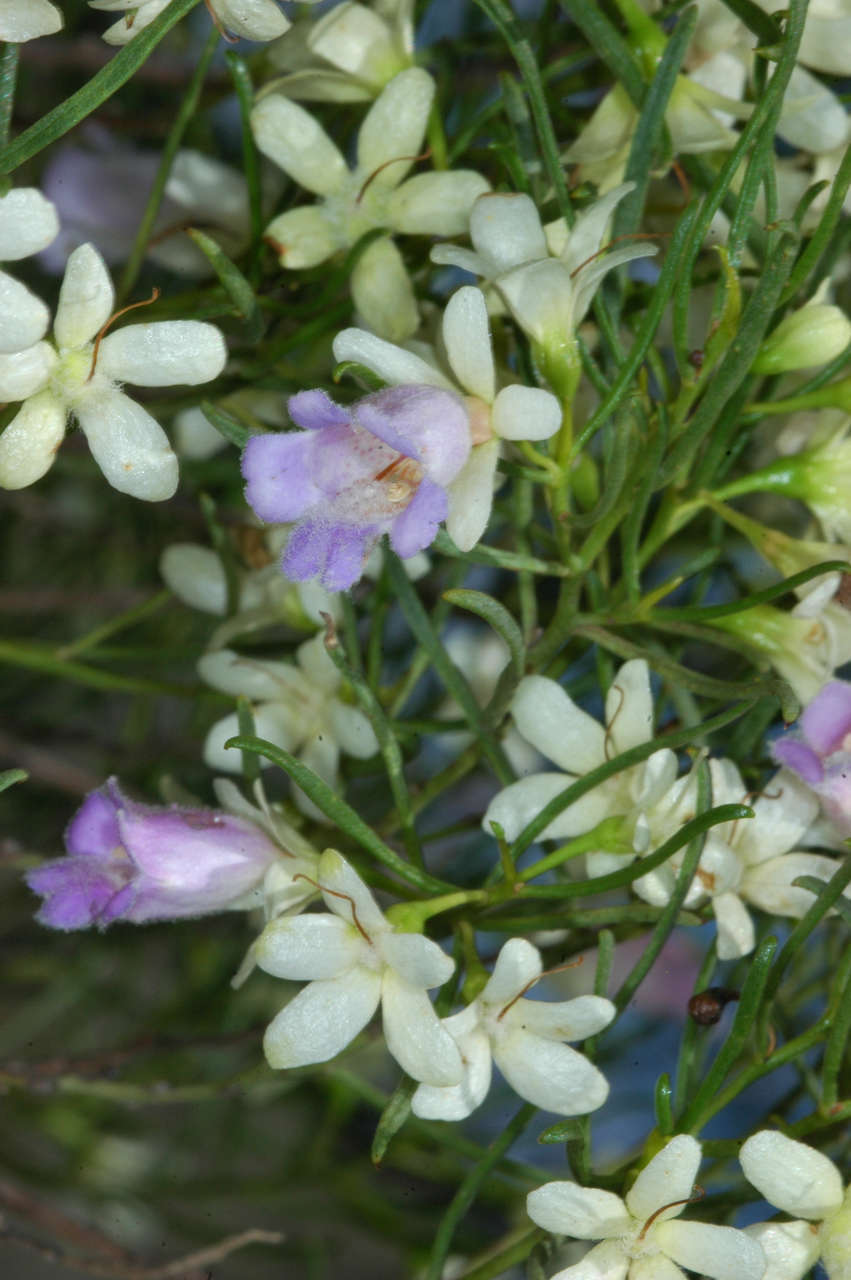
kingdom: Plantae
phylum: Tracheophyta
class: Magnoliopsida
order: Lamiales
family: Scrophulariaceae
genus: Eremophila
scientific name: Eremophila sturtii
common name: Narrow-leaf emubush
